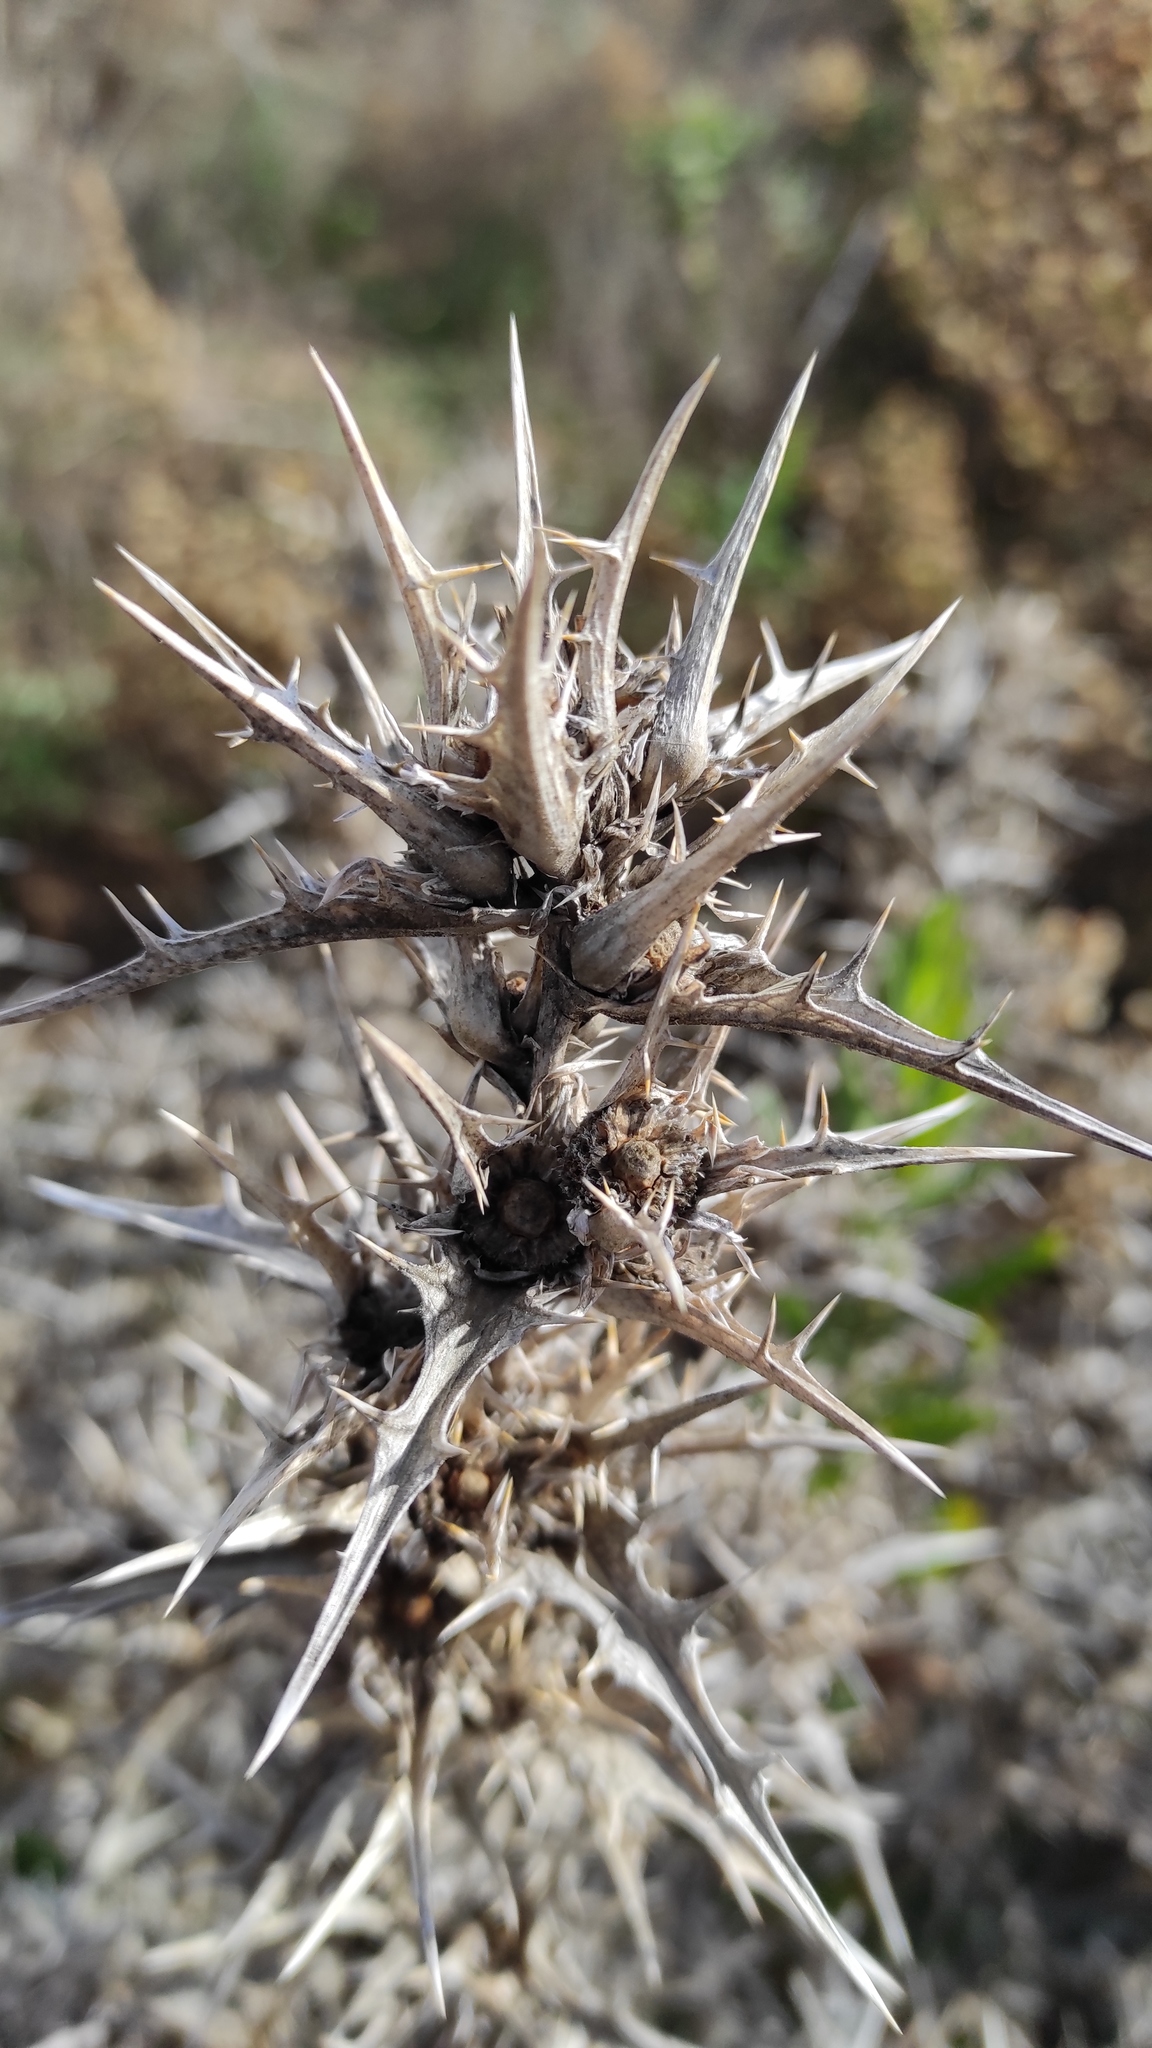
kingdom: Plantae
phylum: Tracheophyta
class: Magnoliopsida
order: Asterales
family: Asteraceae
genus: Scolymus
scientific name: Scolymus hispanicus
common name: Golden thistle
